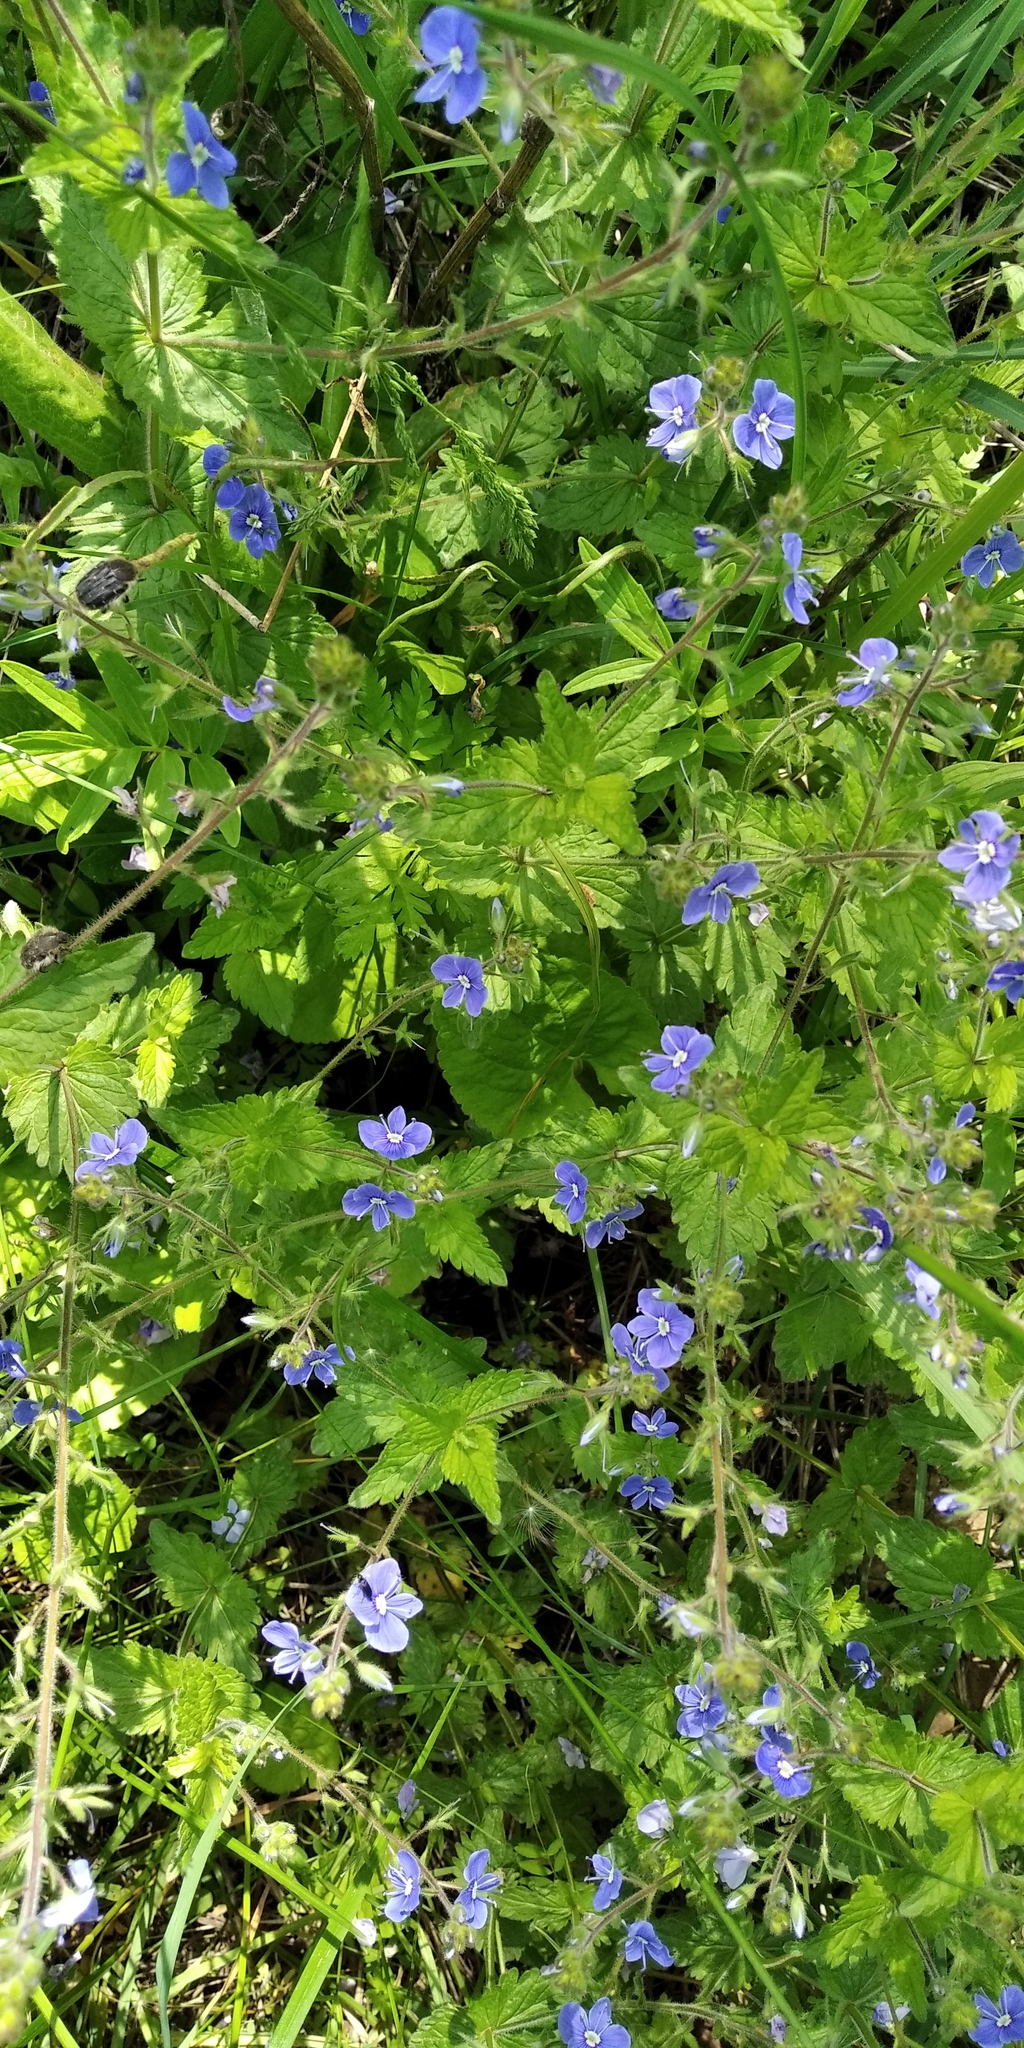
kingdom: Plantae
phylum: Tracheophyta
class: Magnoliopsida
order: Lamiales
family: Plantaginaceae
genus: Veronica
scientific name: Veronica chamaedrys
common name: Germander speedwell
